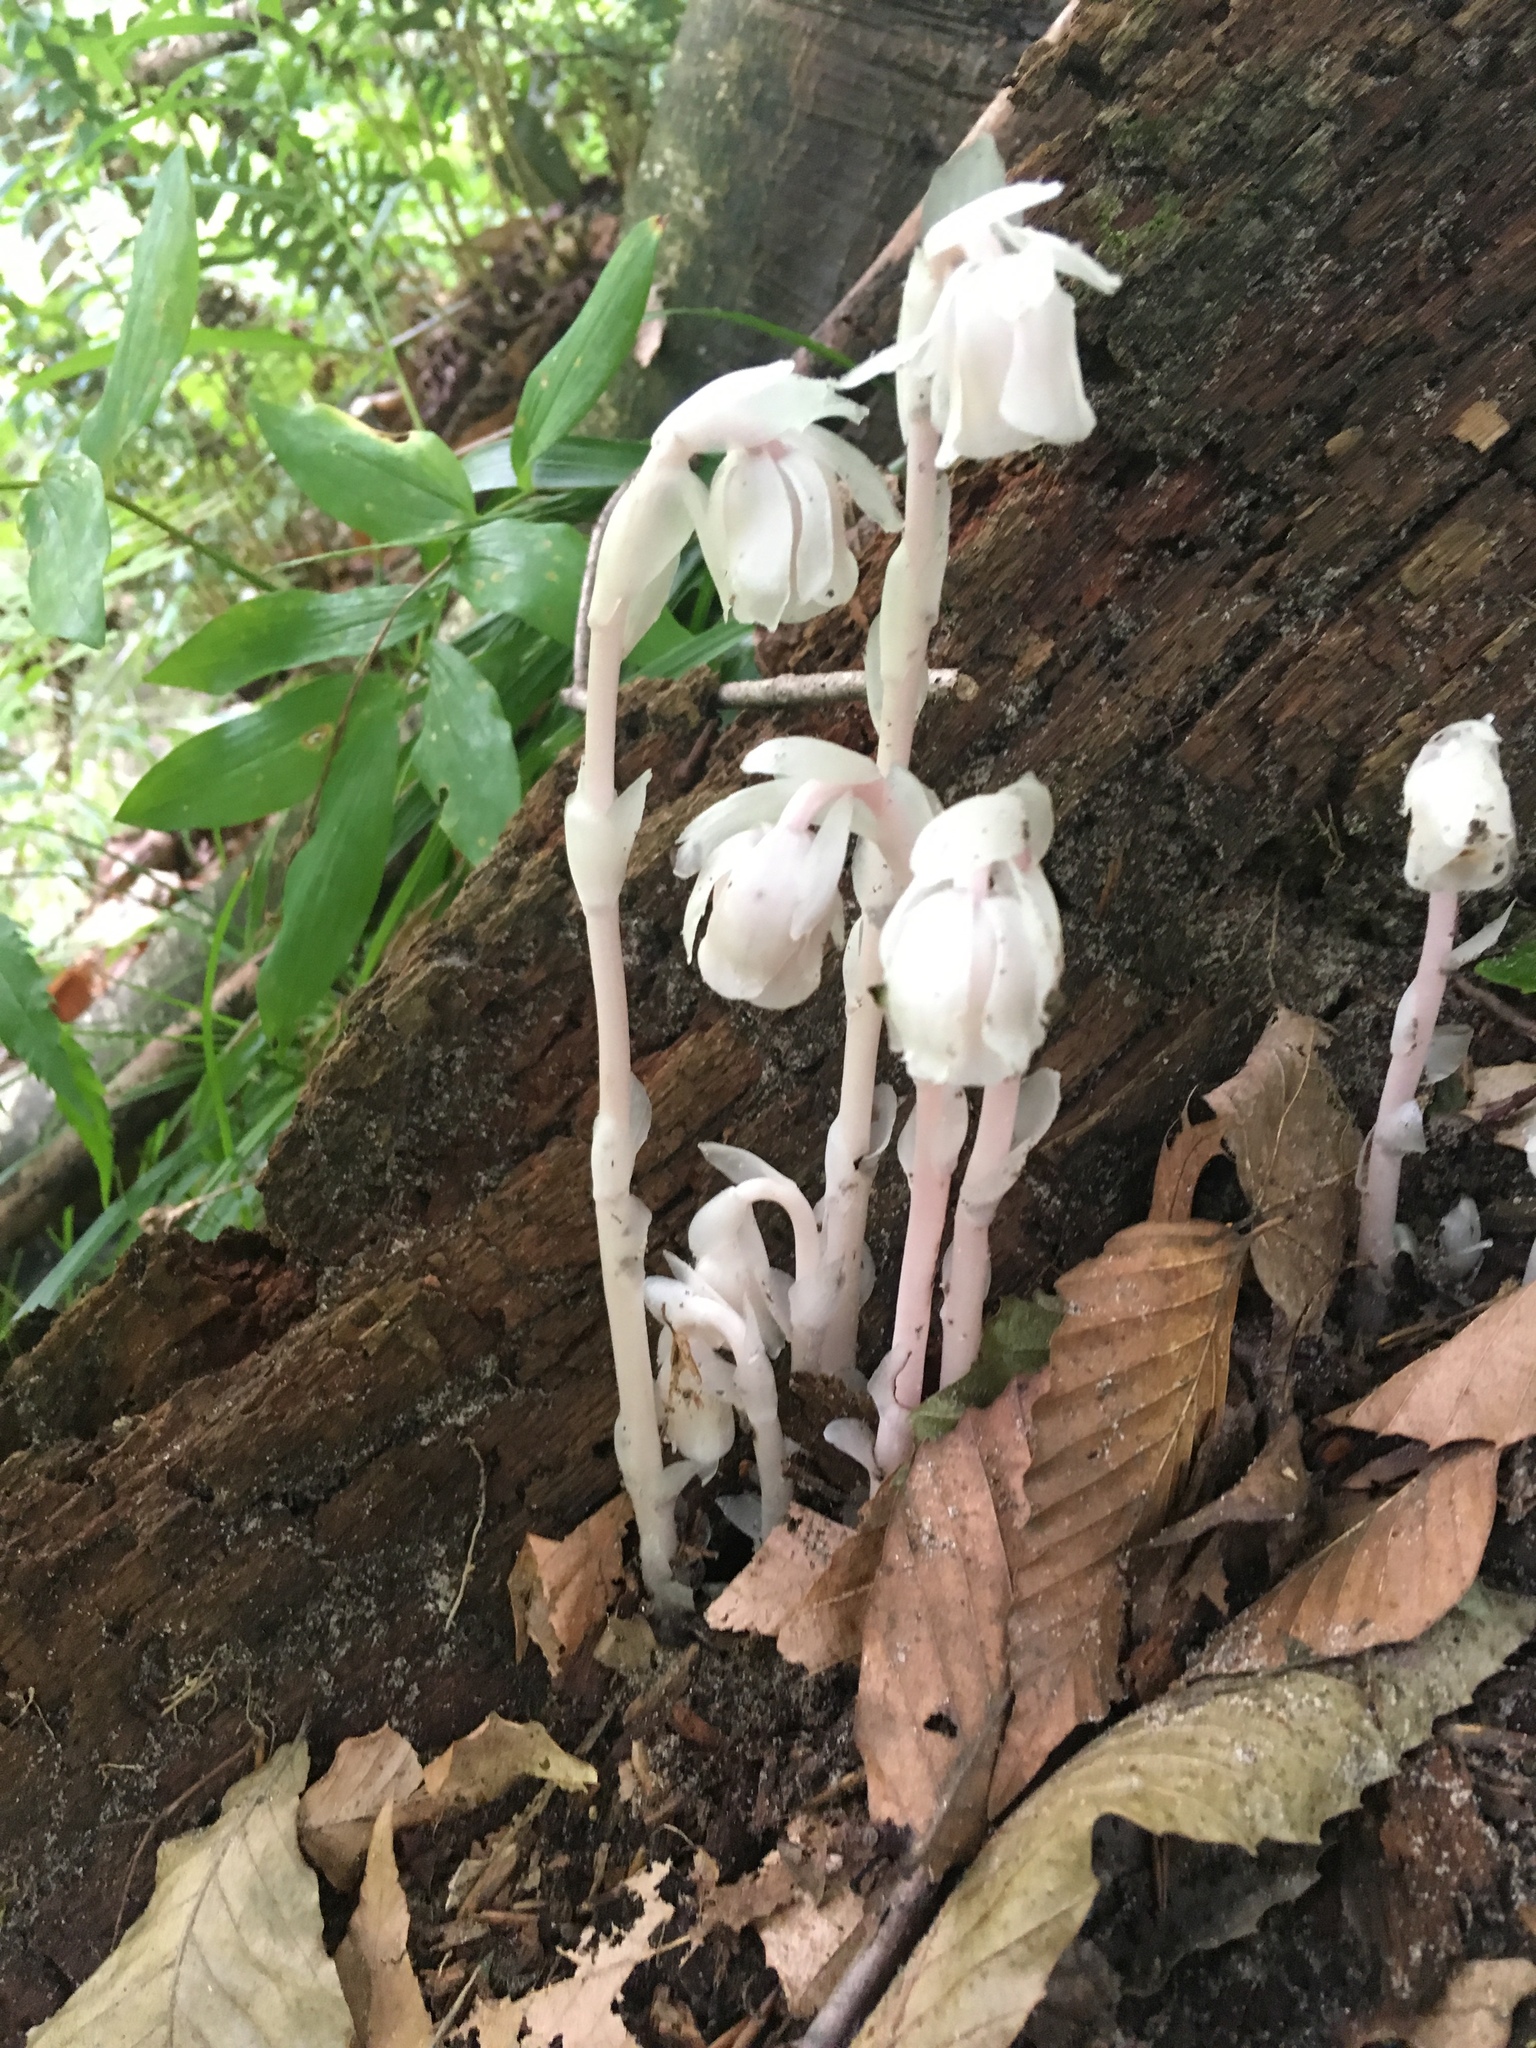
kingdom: Plantae
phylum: Tracheophyta
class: Magnoliopsida
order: Ericales
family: Ericaceae
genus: Monotropa
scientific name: Monotropa uniflora
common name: Convulsion root
